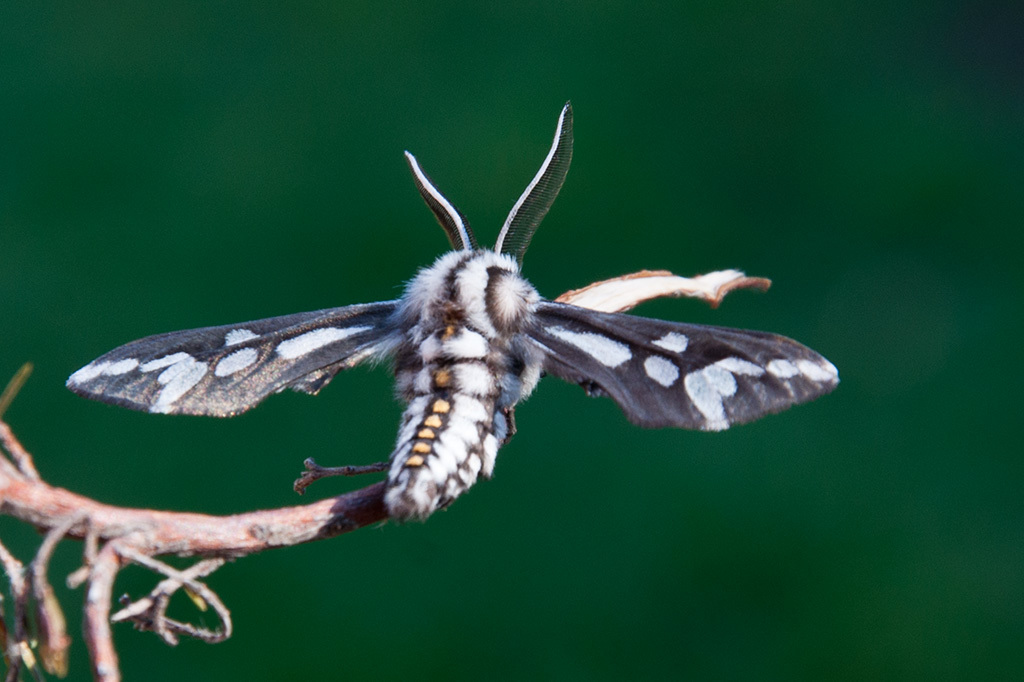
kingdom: Animalia
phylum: Arthropoda
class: Insecta
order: Lepidoptera
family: Erebidae
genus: Thyretes
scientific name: Thyretes hippotes
